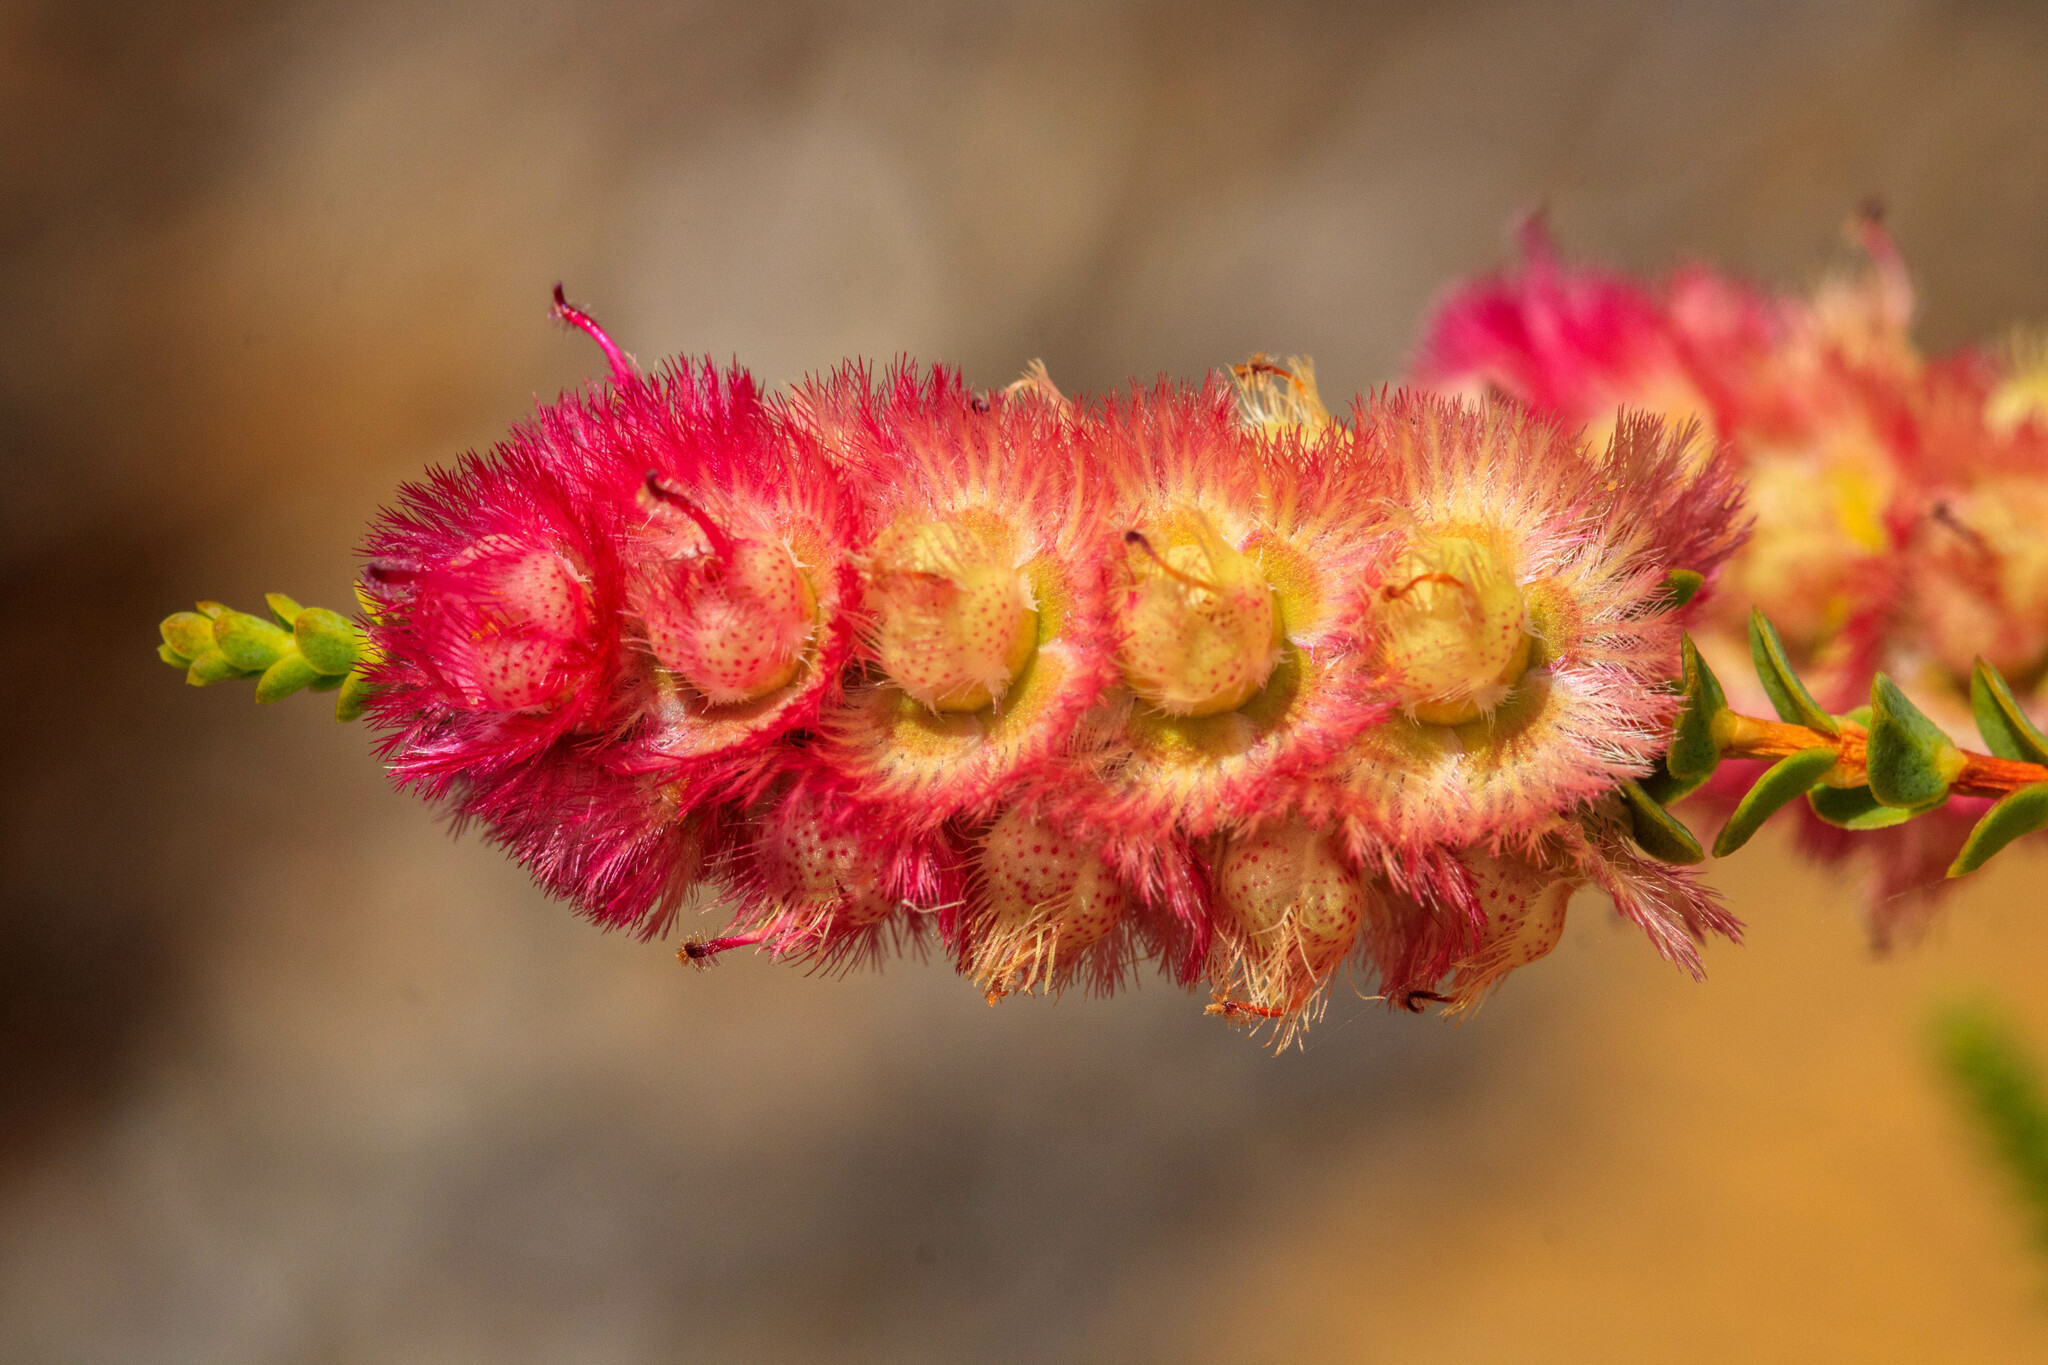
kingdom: Plantae
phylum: Tracheophyta
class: Magnoliopsida
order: Myrtales
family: Myrtaceae
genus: Verticordia
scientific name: Verticordia eurardyensis
